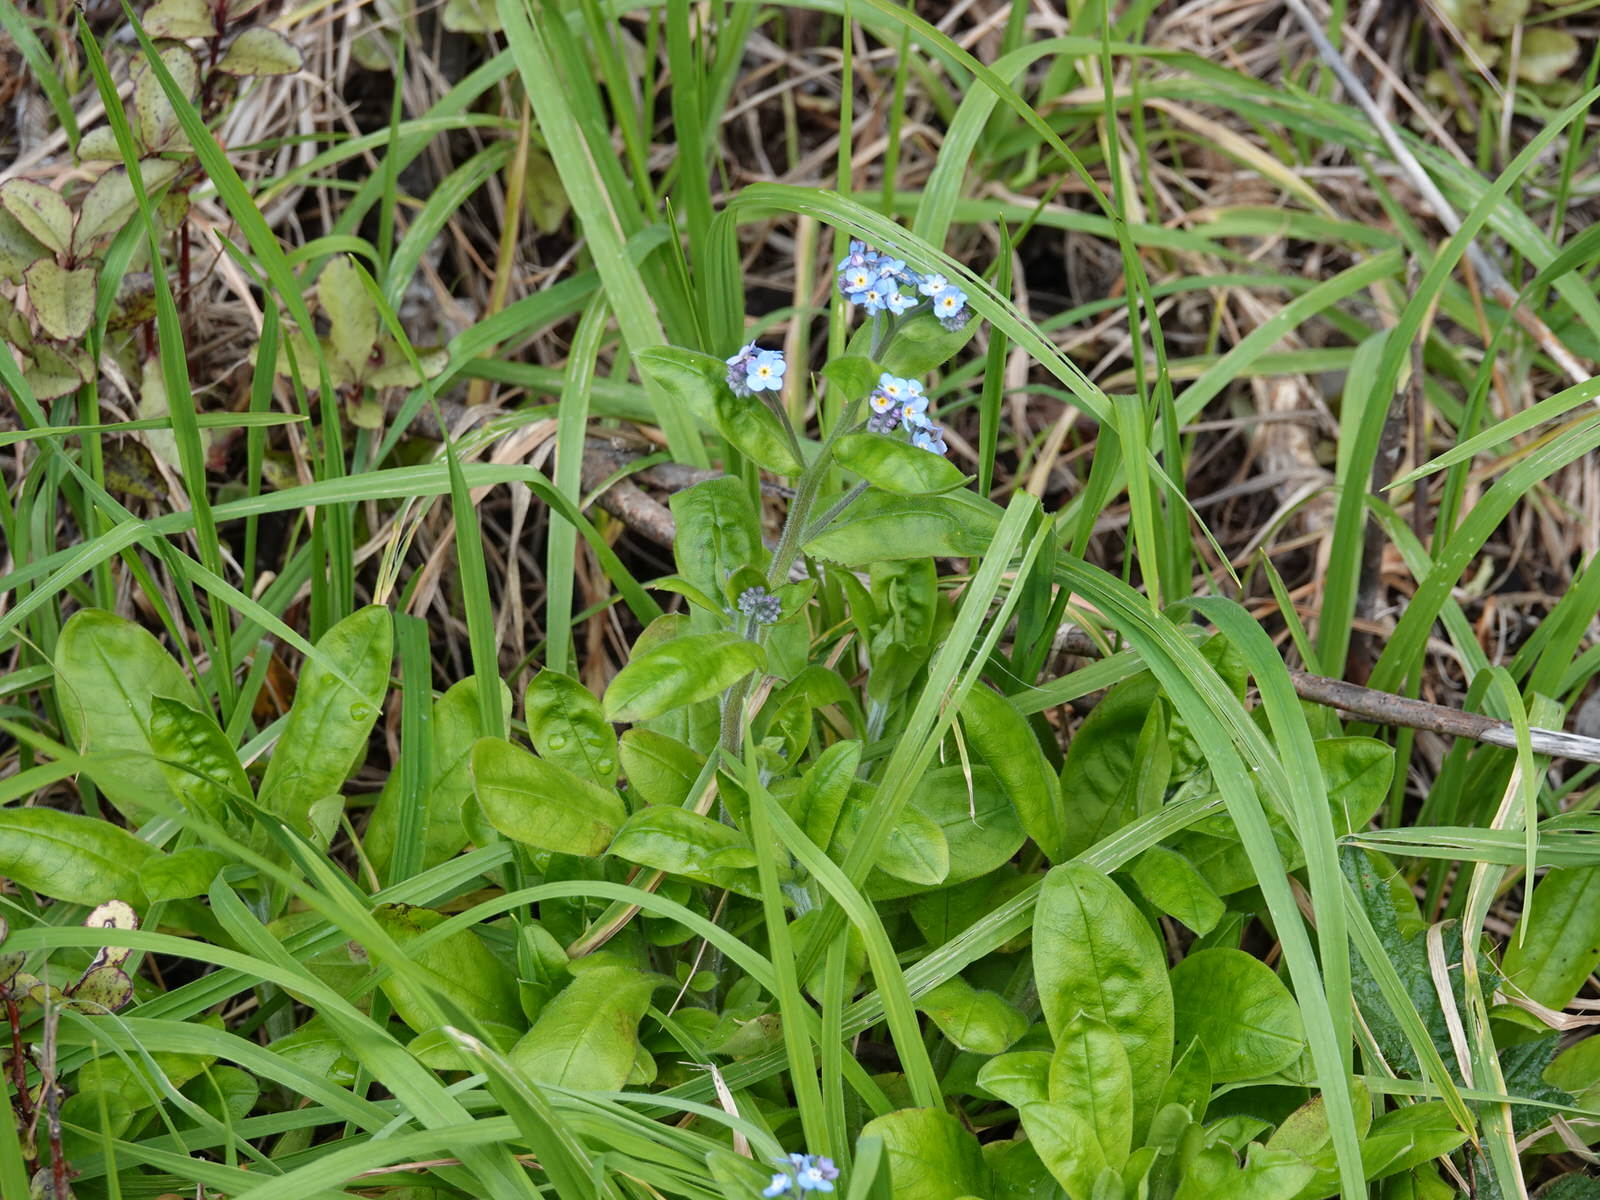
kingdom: Plantae
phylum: Tracheophyta
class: Magnoliopsida
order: Boraginales
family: Boraginaceae
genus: Myosotis
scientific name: Myosotis sylvatica
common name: Wood forget-me-not
